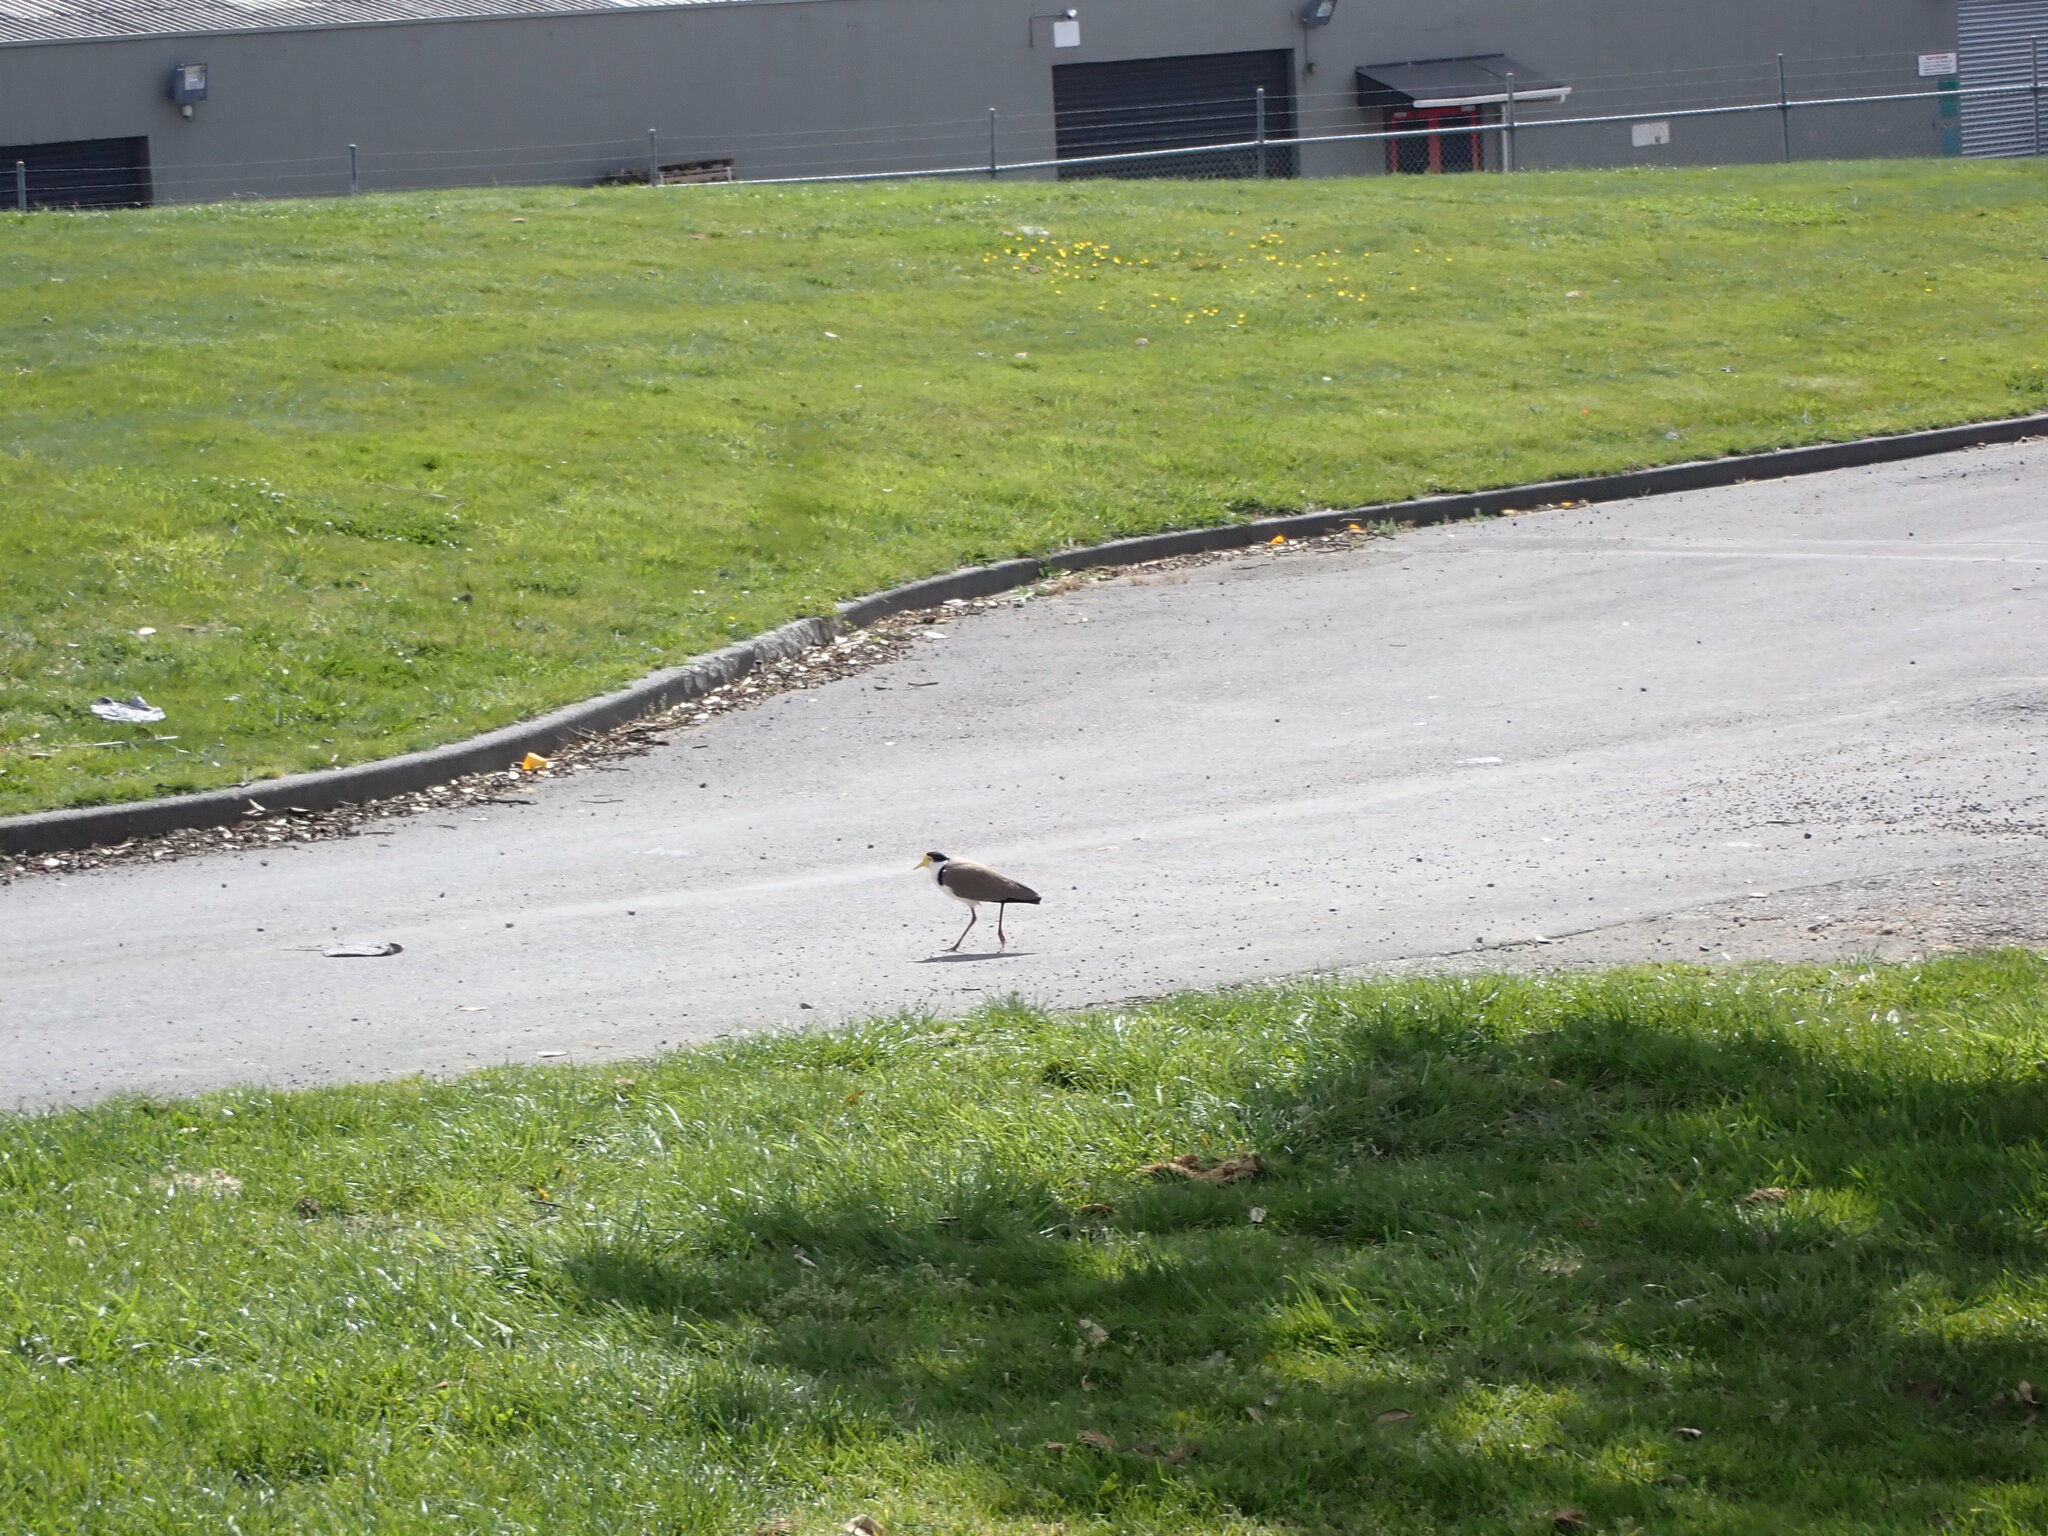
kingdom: Animalia
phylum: Chordata
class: Aves
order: Charadriiformes
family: Charadriidae
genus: Vanellus
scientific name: Vanellus miles
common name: Masked lapwing
